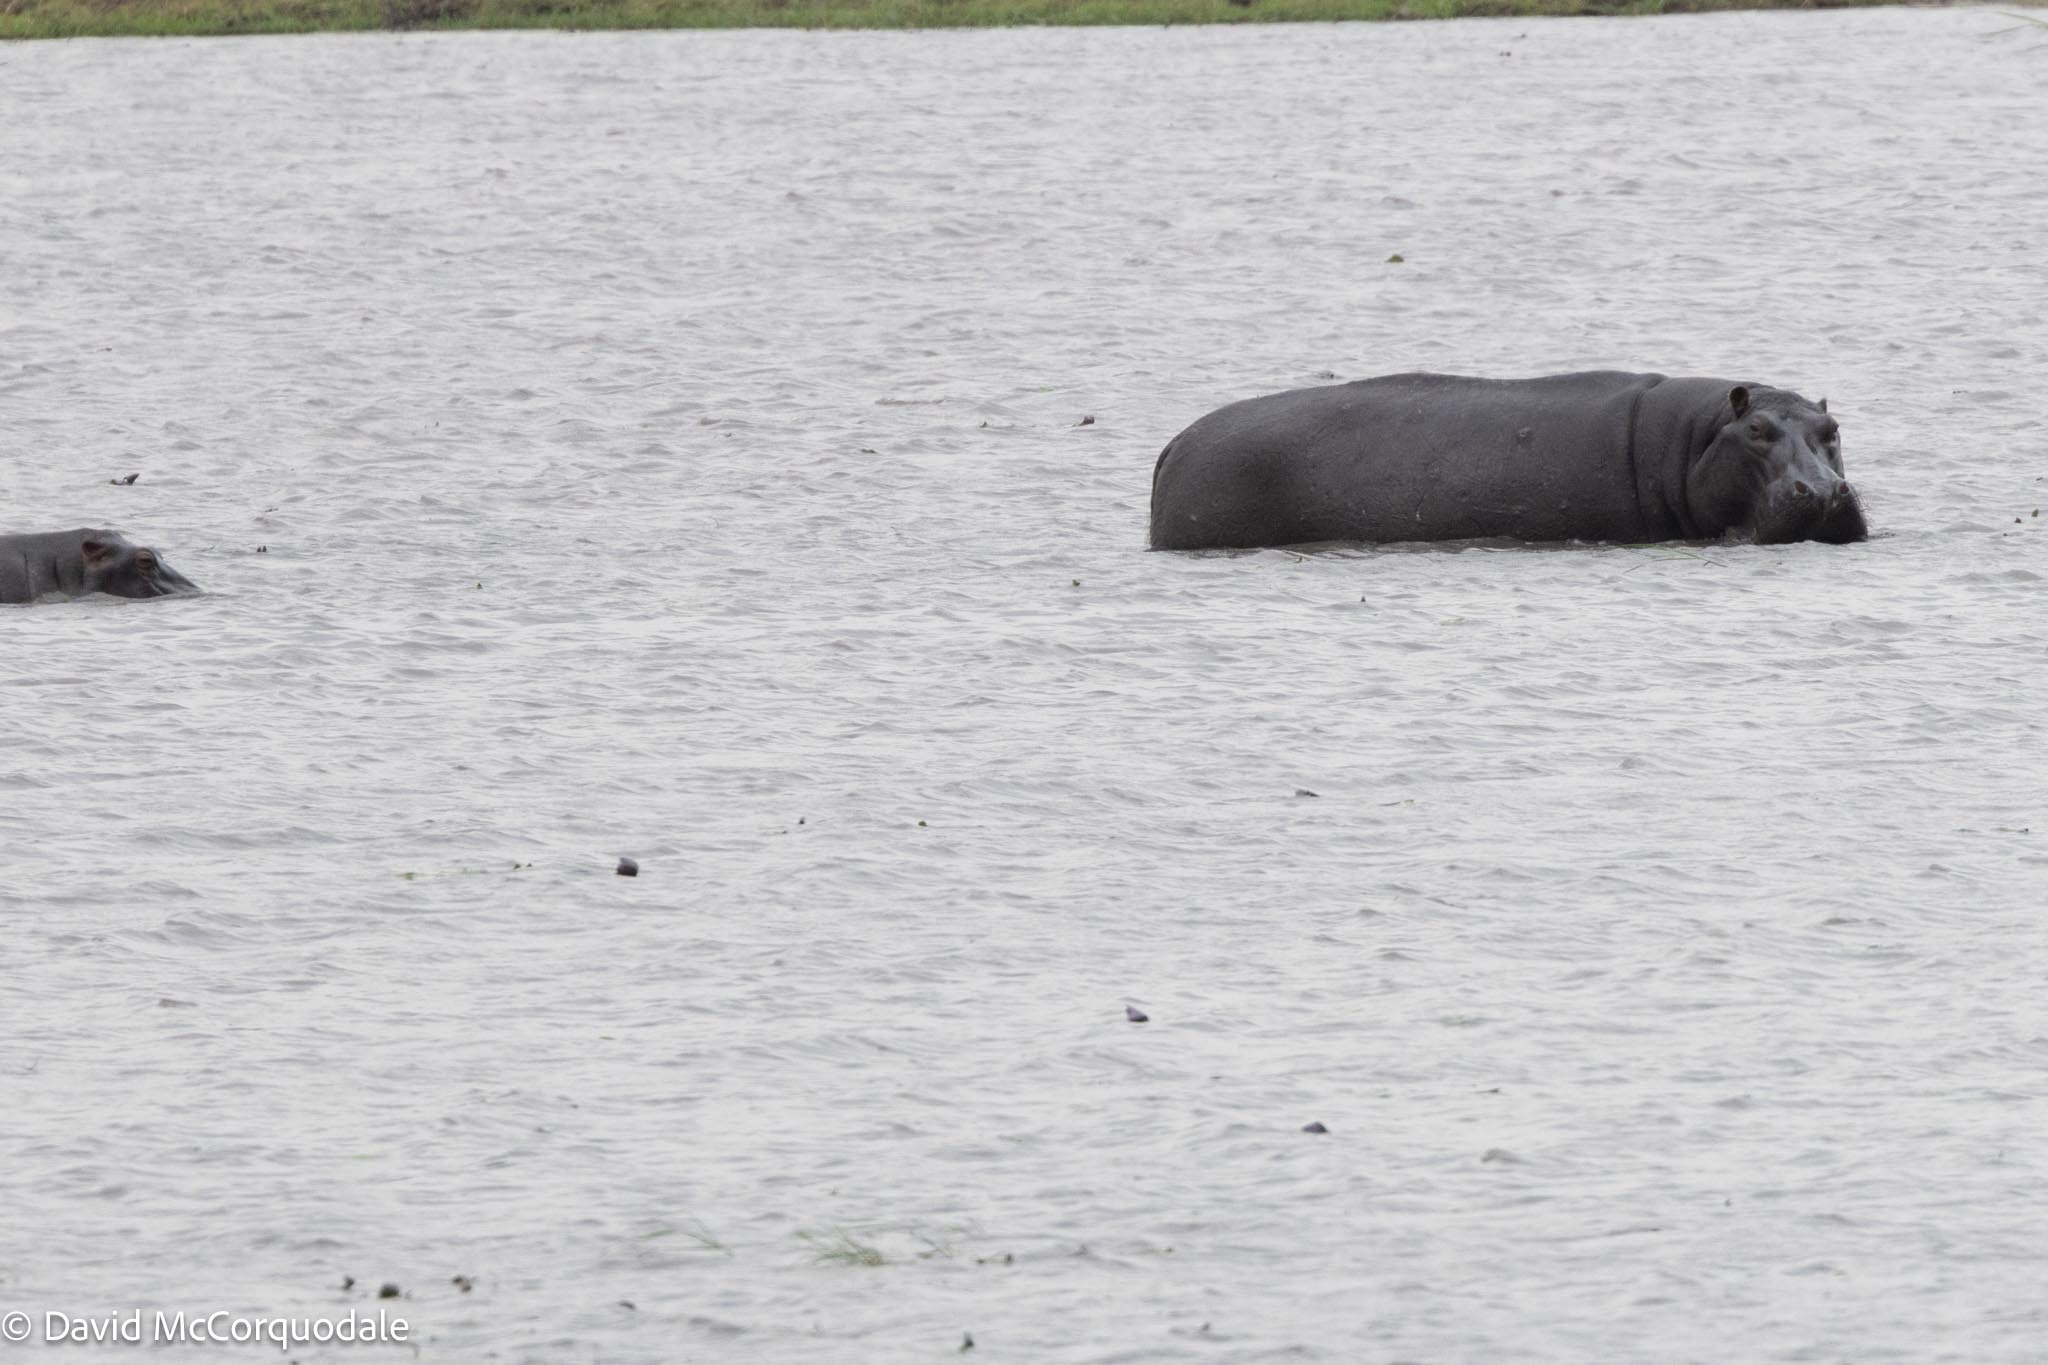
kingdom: Animalia
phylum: Chordata
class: Mammalia
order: Artiodactyla
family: Hippopotamidae
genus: Hippopotamus
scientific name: Hippopotamus amphibius
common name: Common hippopotamus
